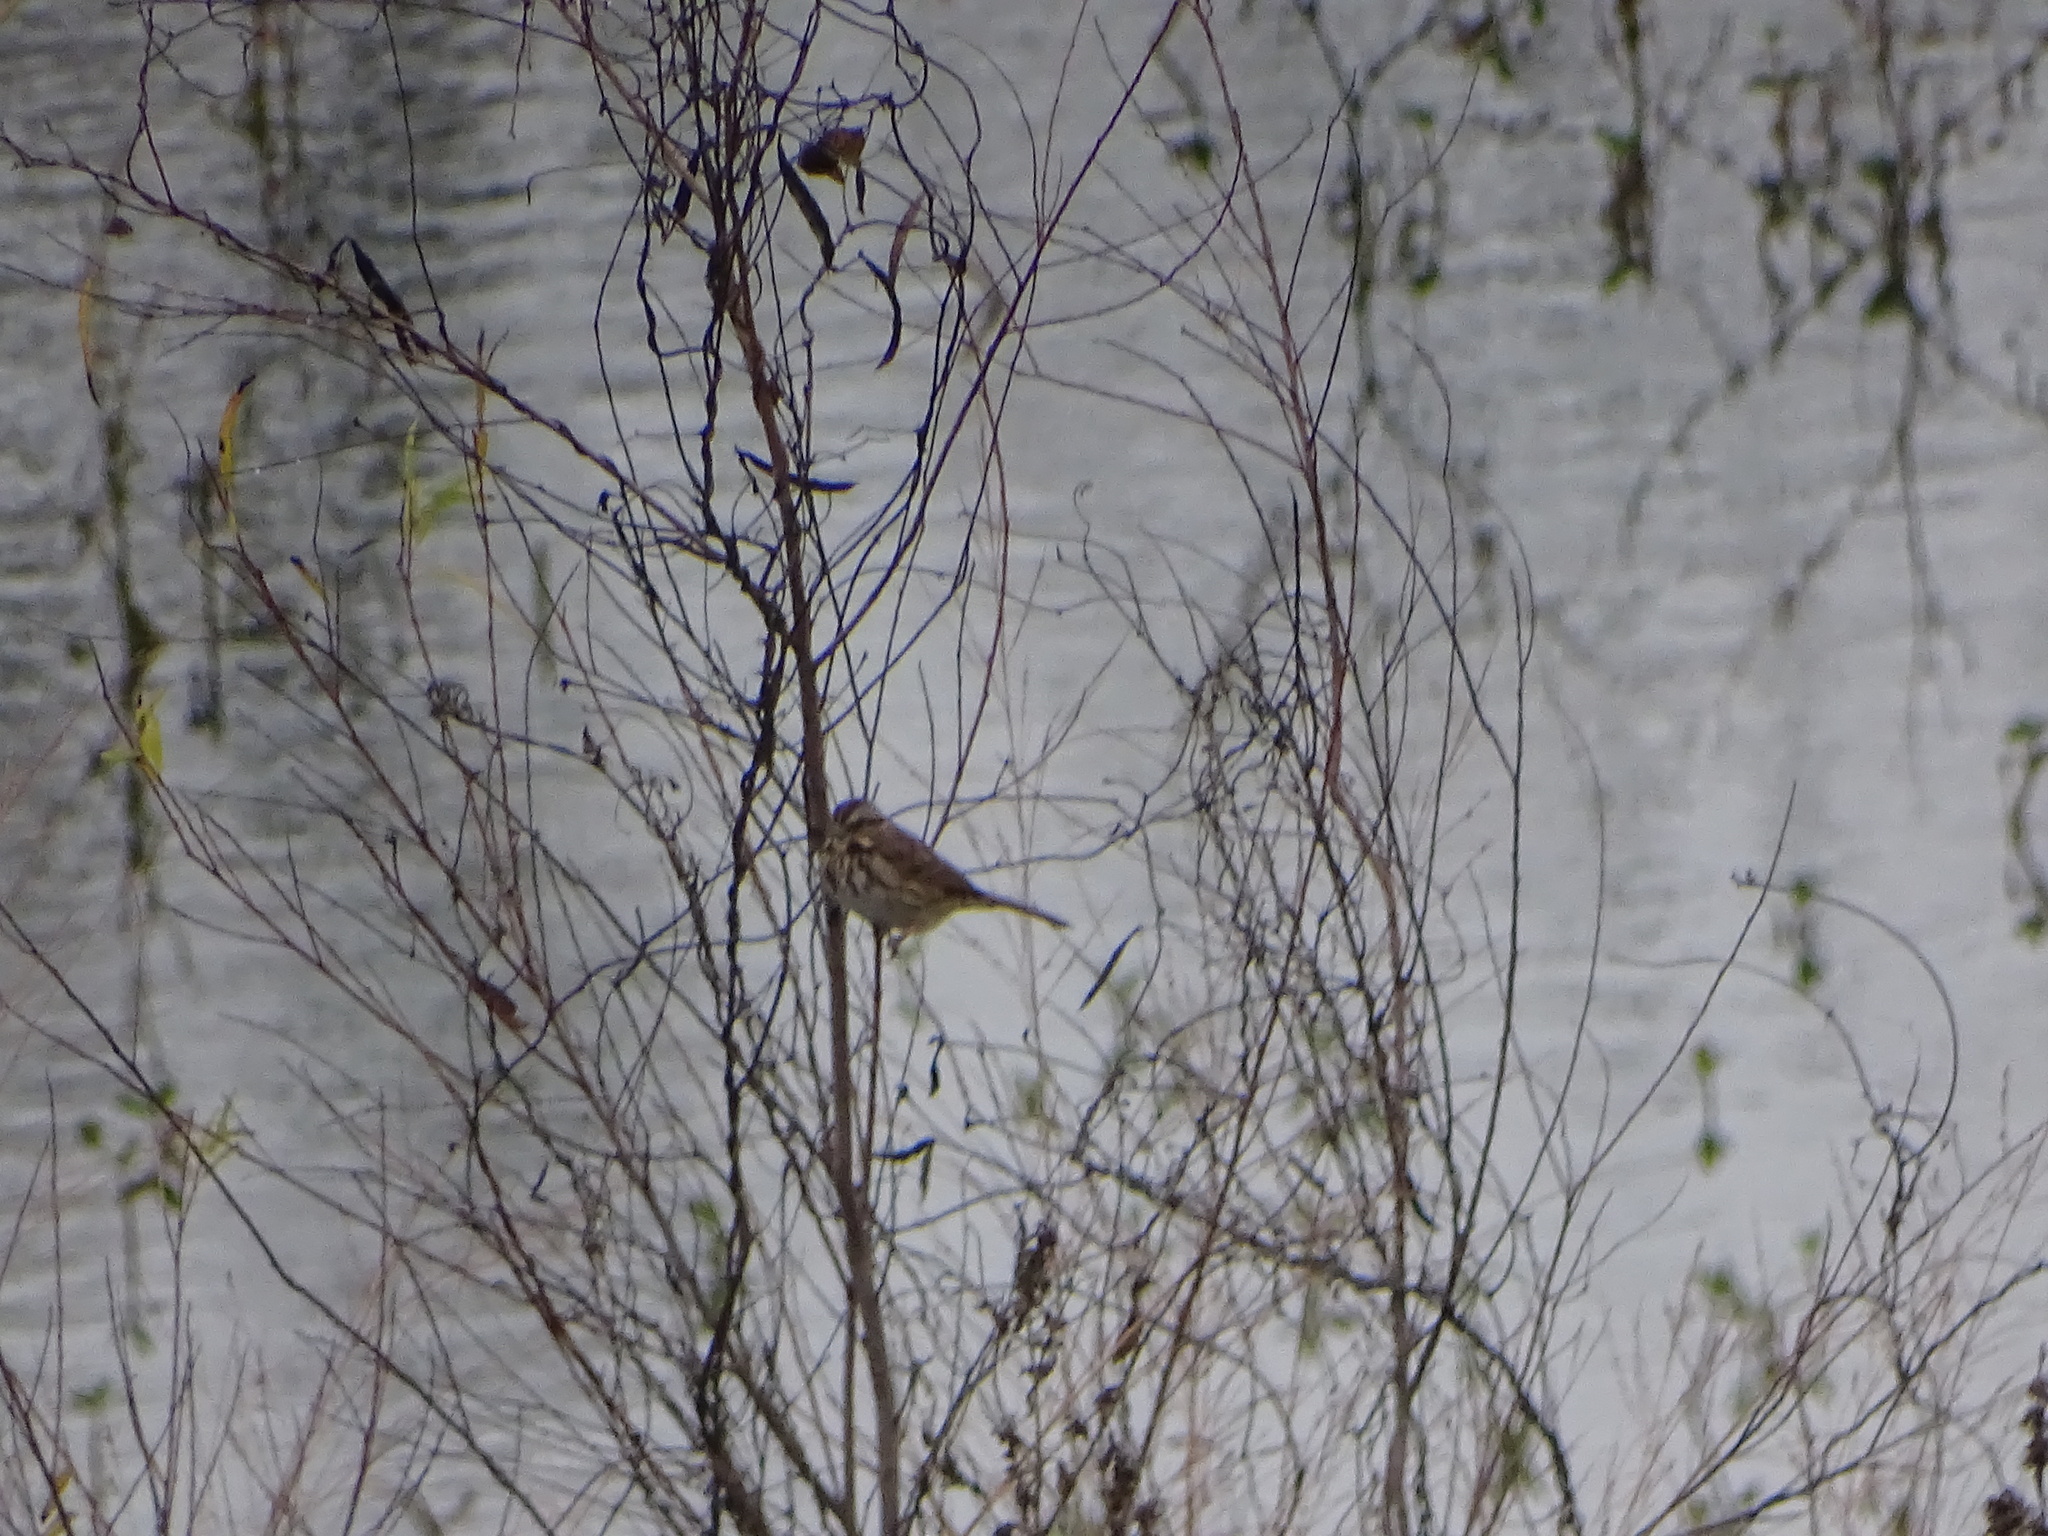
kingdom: Animalia
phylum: Chordata
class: Aves
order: Passeriformes
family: Passerellidae
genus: Melospiza
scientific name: Melospiza melodia
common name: Song sparrow
